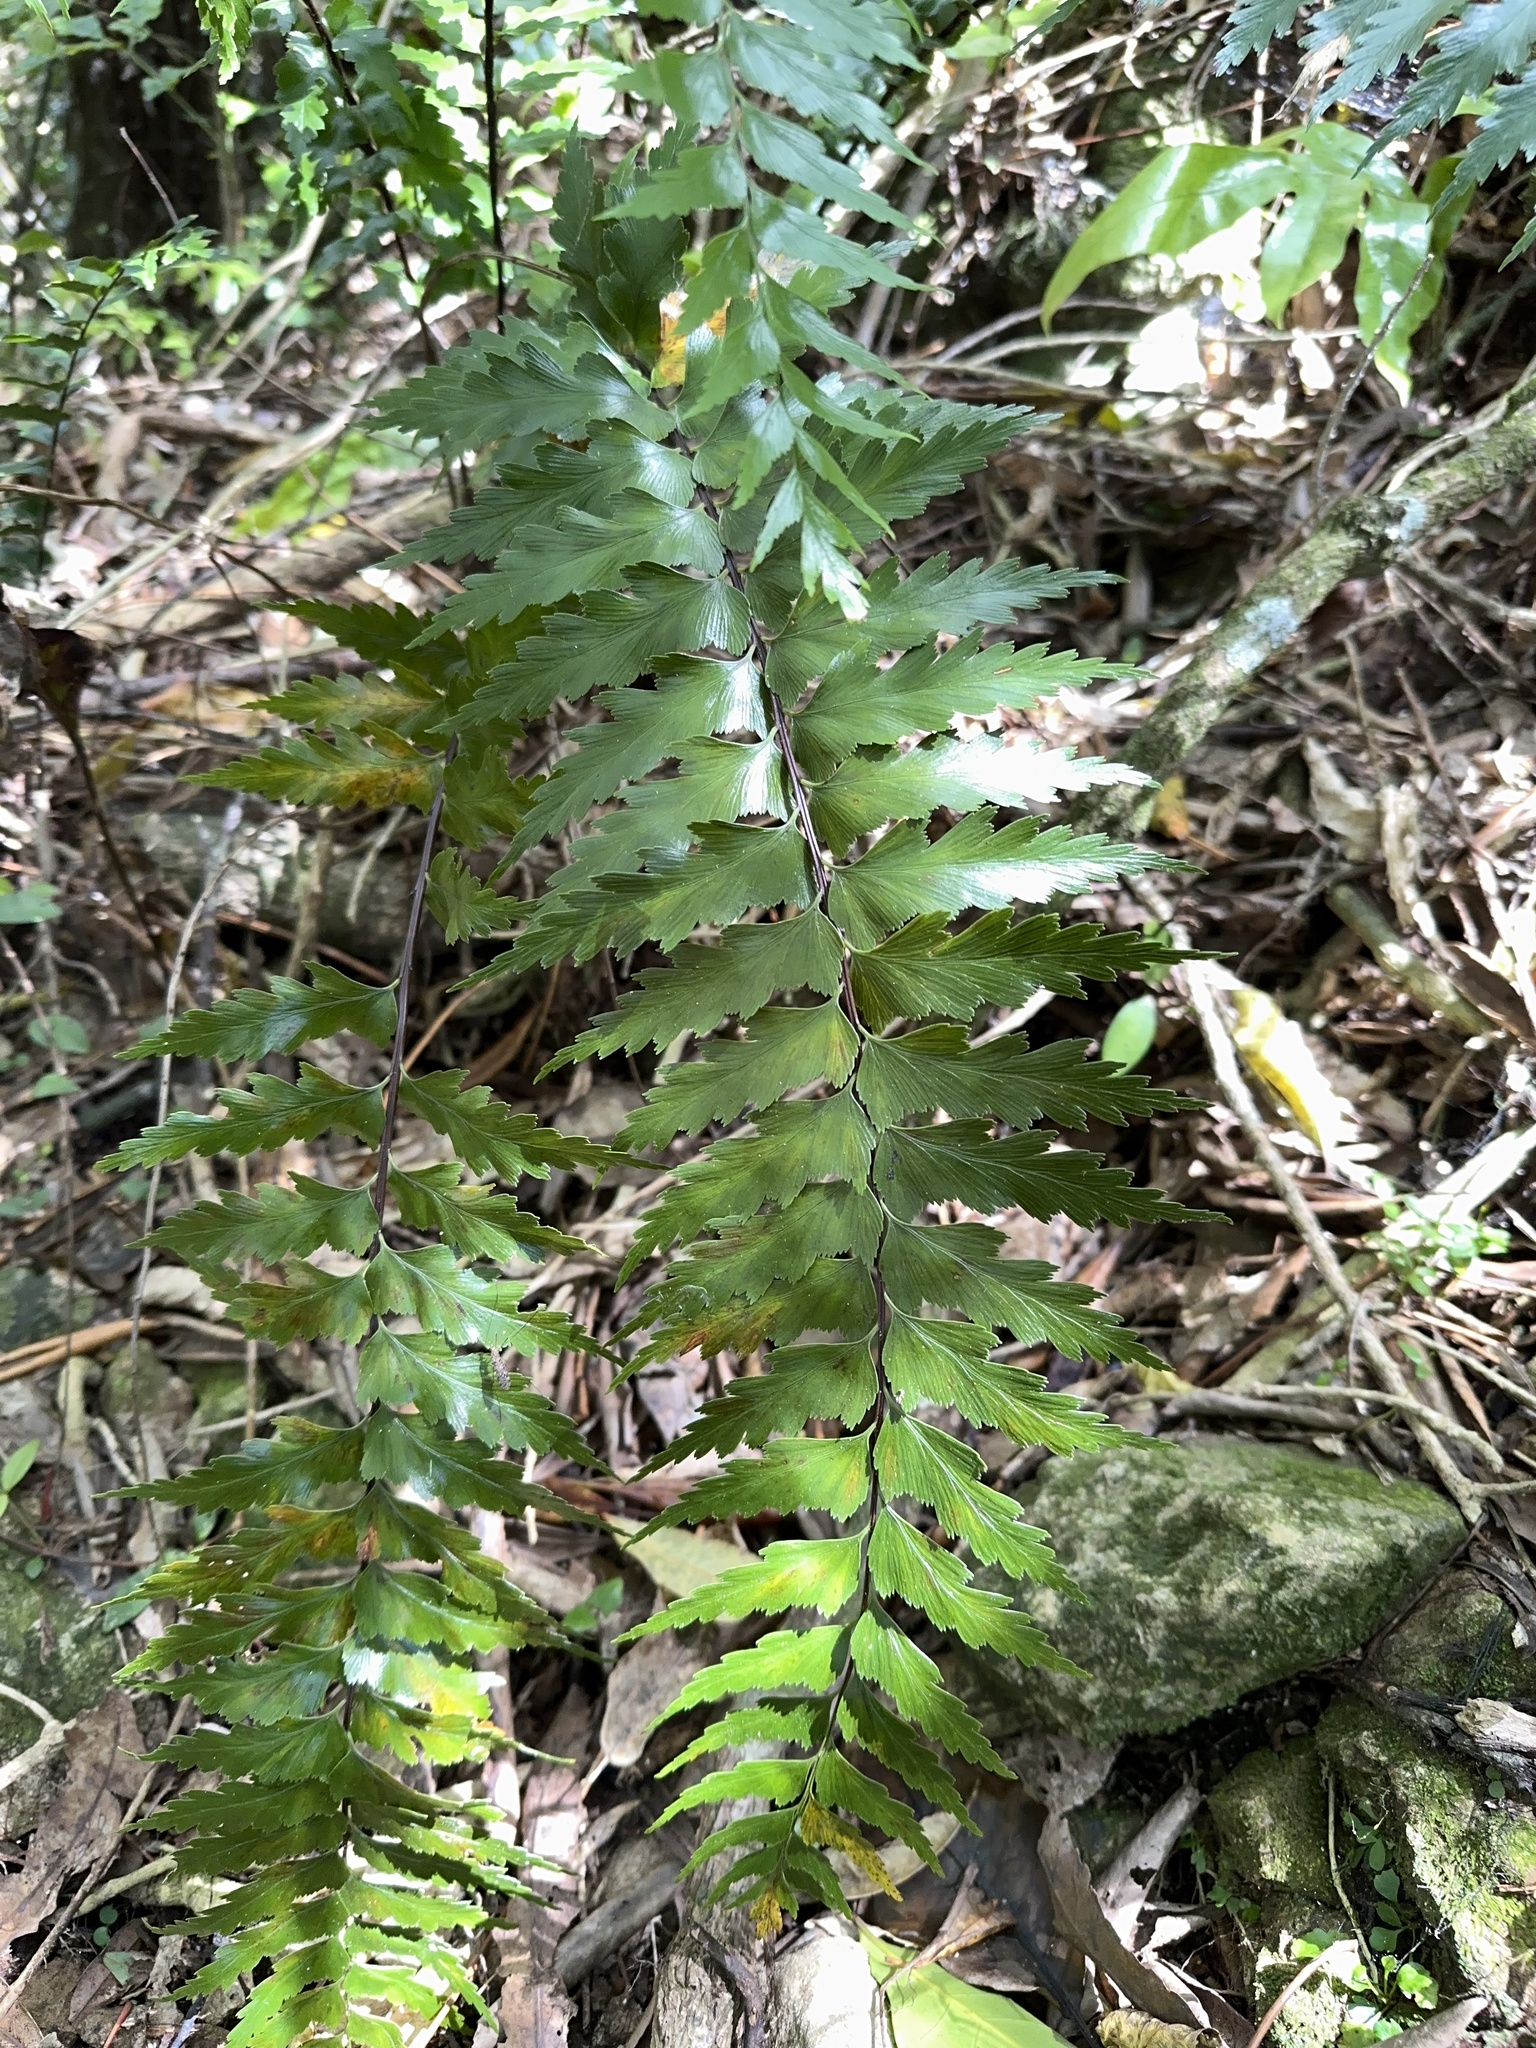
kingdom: Plantae
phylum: Tracheophyta
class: Polypodiopsida
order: Polypodiales
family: Aspleniaceae
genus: Asplenium
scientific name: Asplenium polyodon
